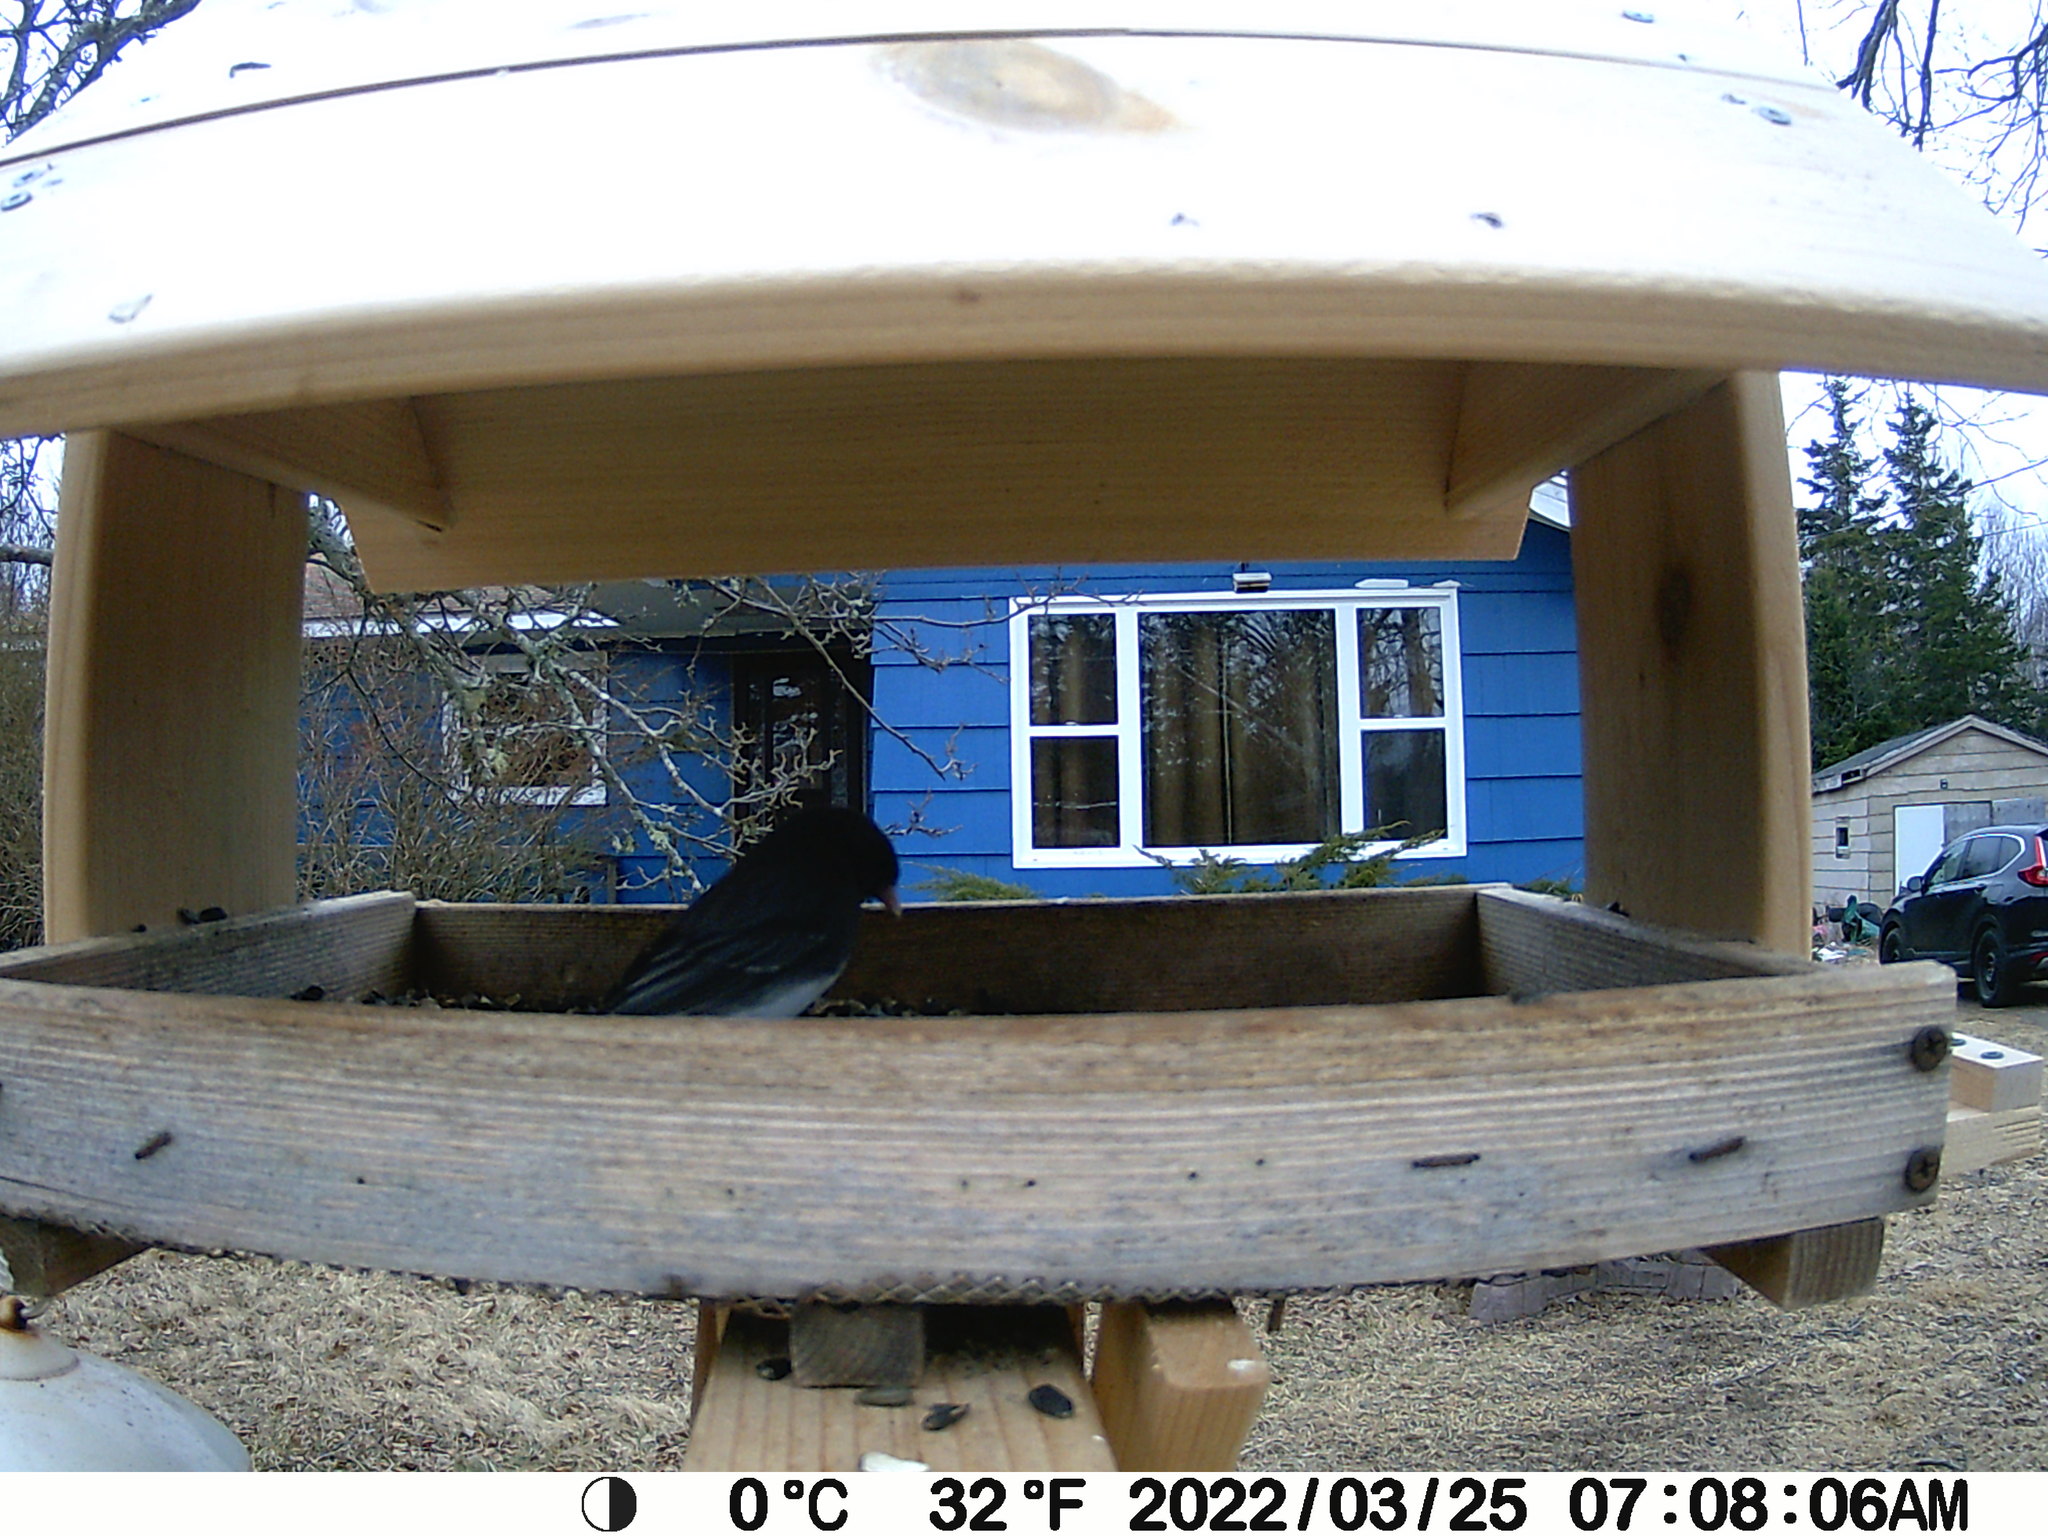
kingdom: Animalia
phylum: Chordata
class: Aves
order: Passeriformes
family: Passerellidae
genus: Junco
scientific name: Junco hyemalis
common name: Dark-eyed junco
